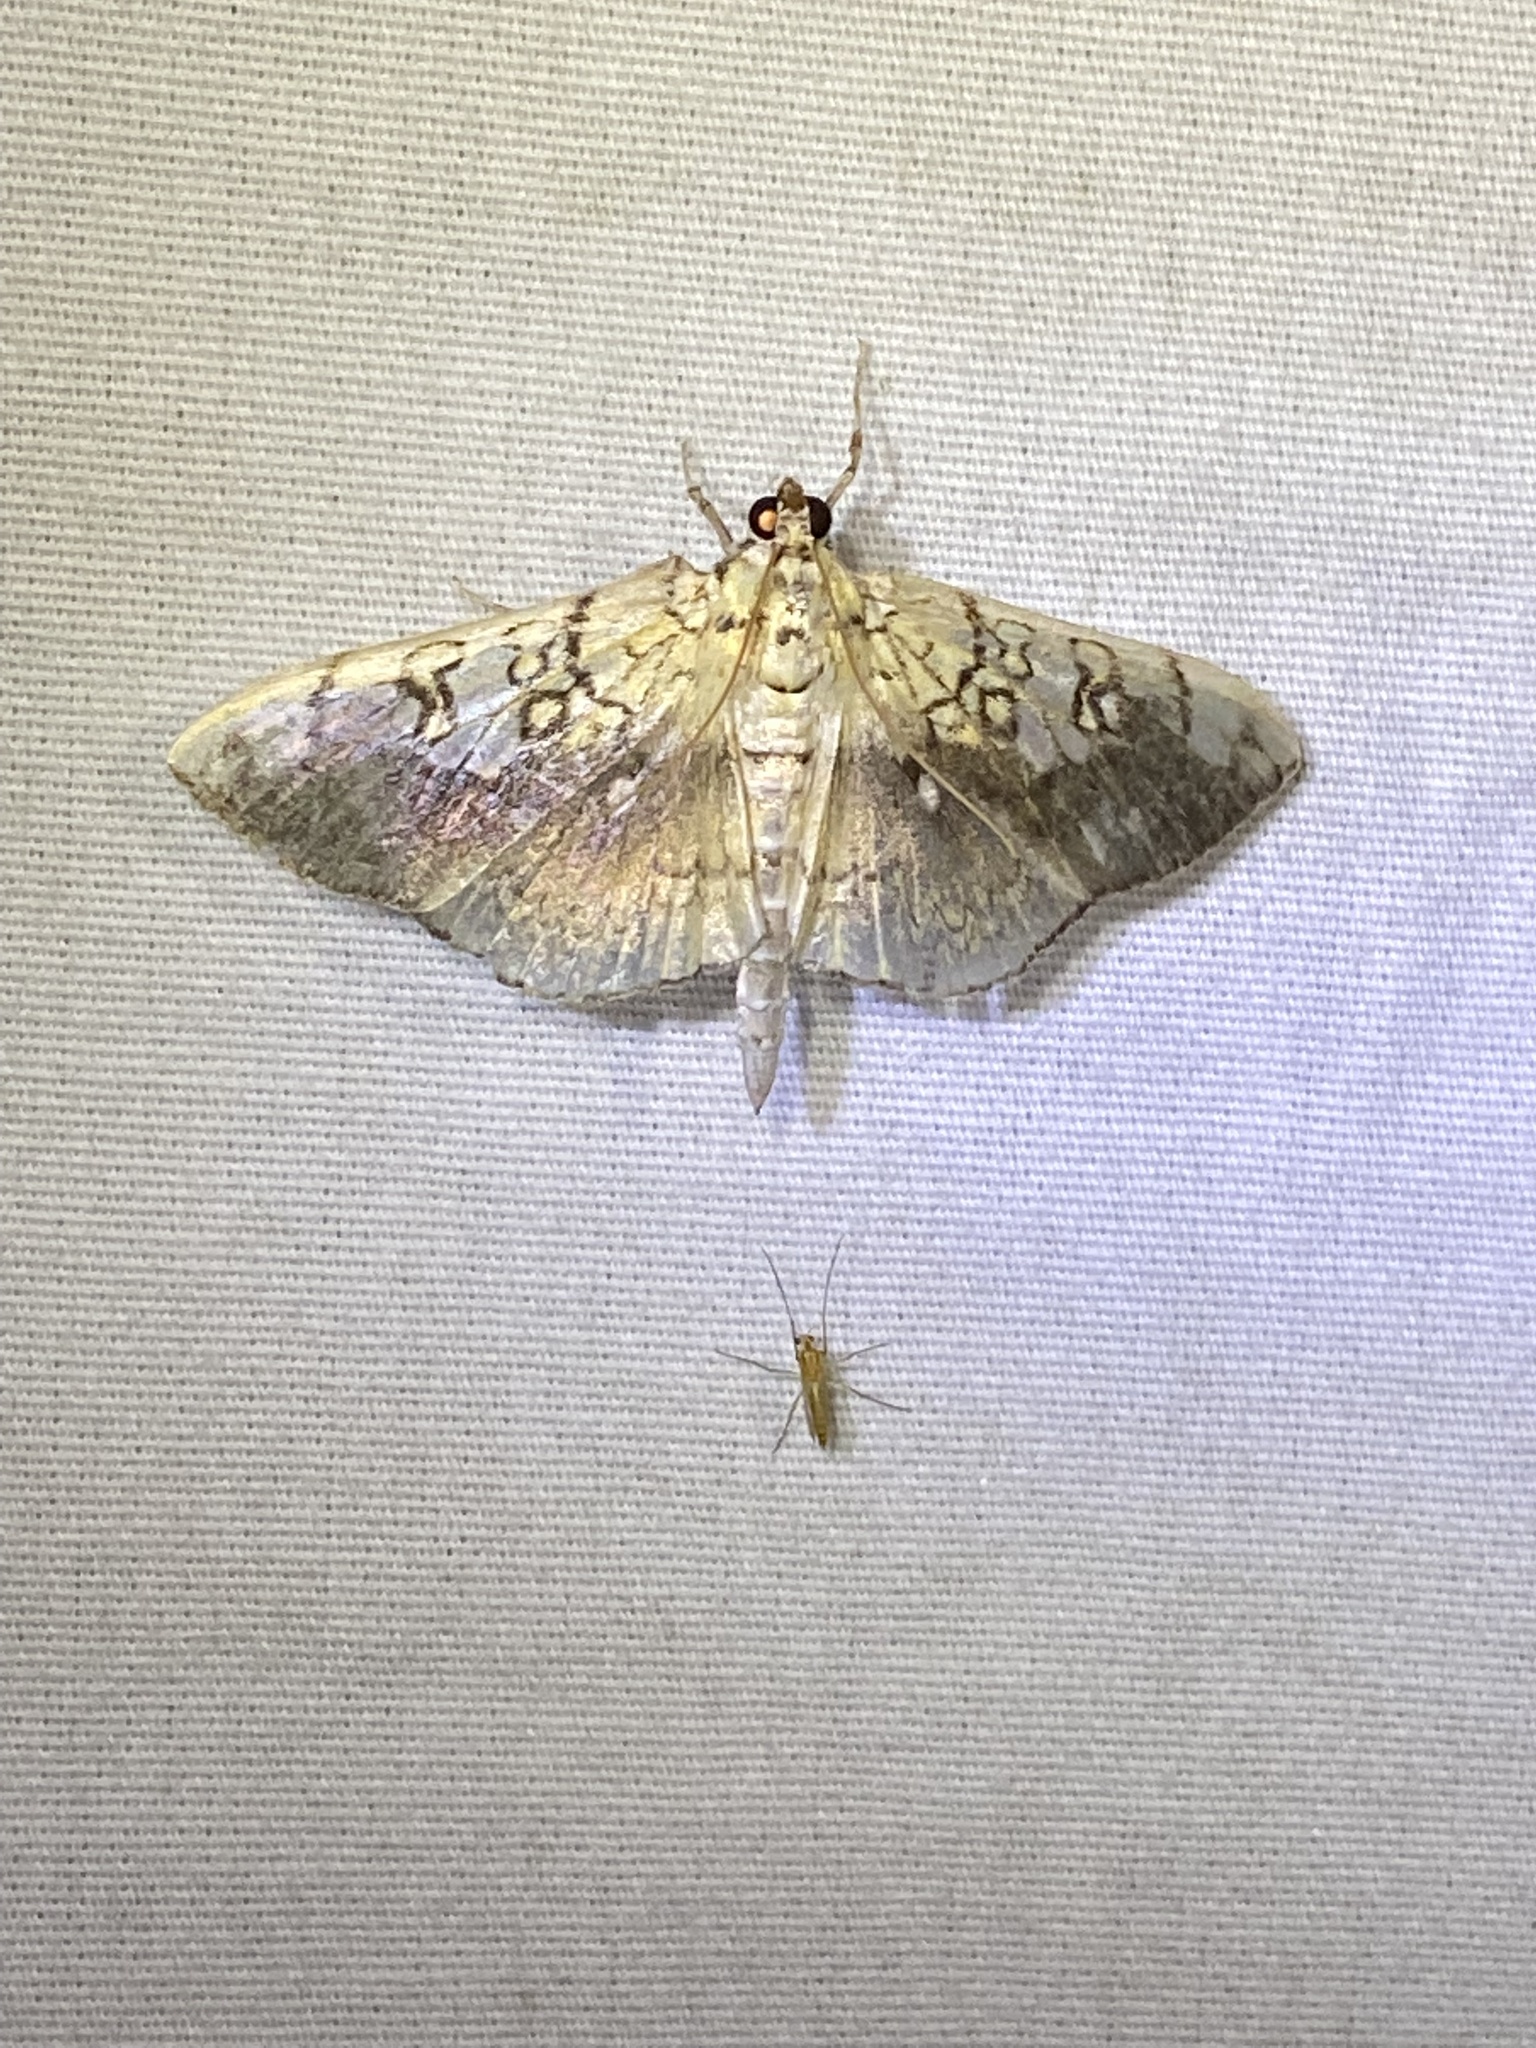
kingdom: Animalia
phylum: Arthropoda
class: Insecta
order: Lepidoptera
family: Crambidae
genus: Pantographa
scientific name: Pantographa limata
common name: Basswood leafroller moth
